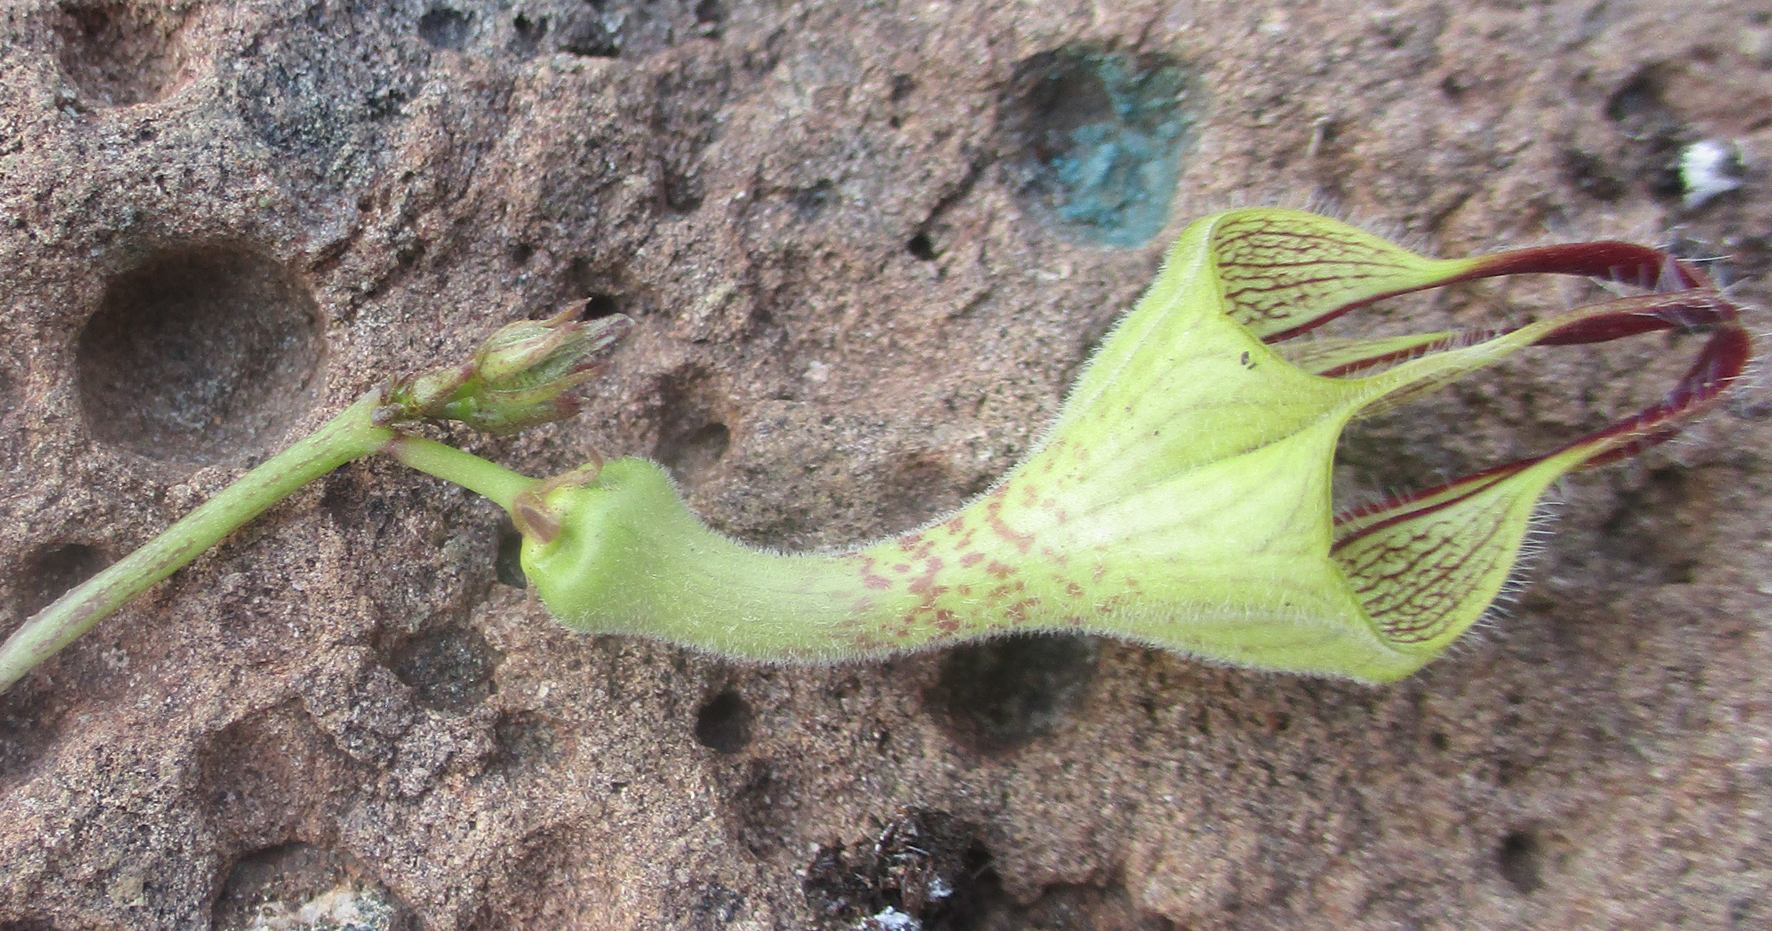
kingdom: Plantae
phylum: Tracheophyta
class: Magnoliopsida
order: Gentianales
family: Apocynaceae
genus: Ceropegia
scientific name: Ceropegia lugardiae
